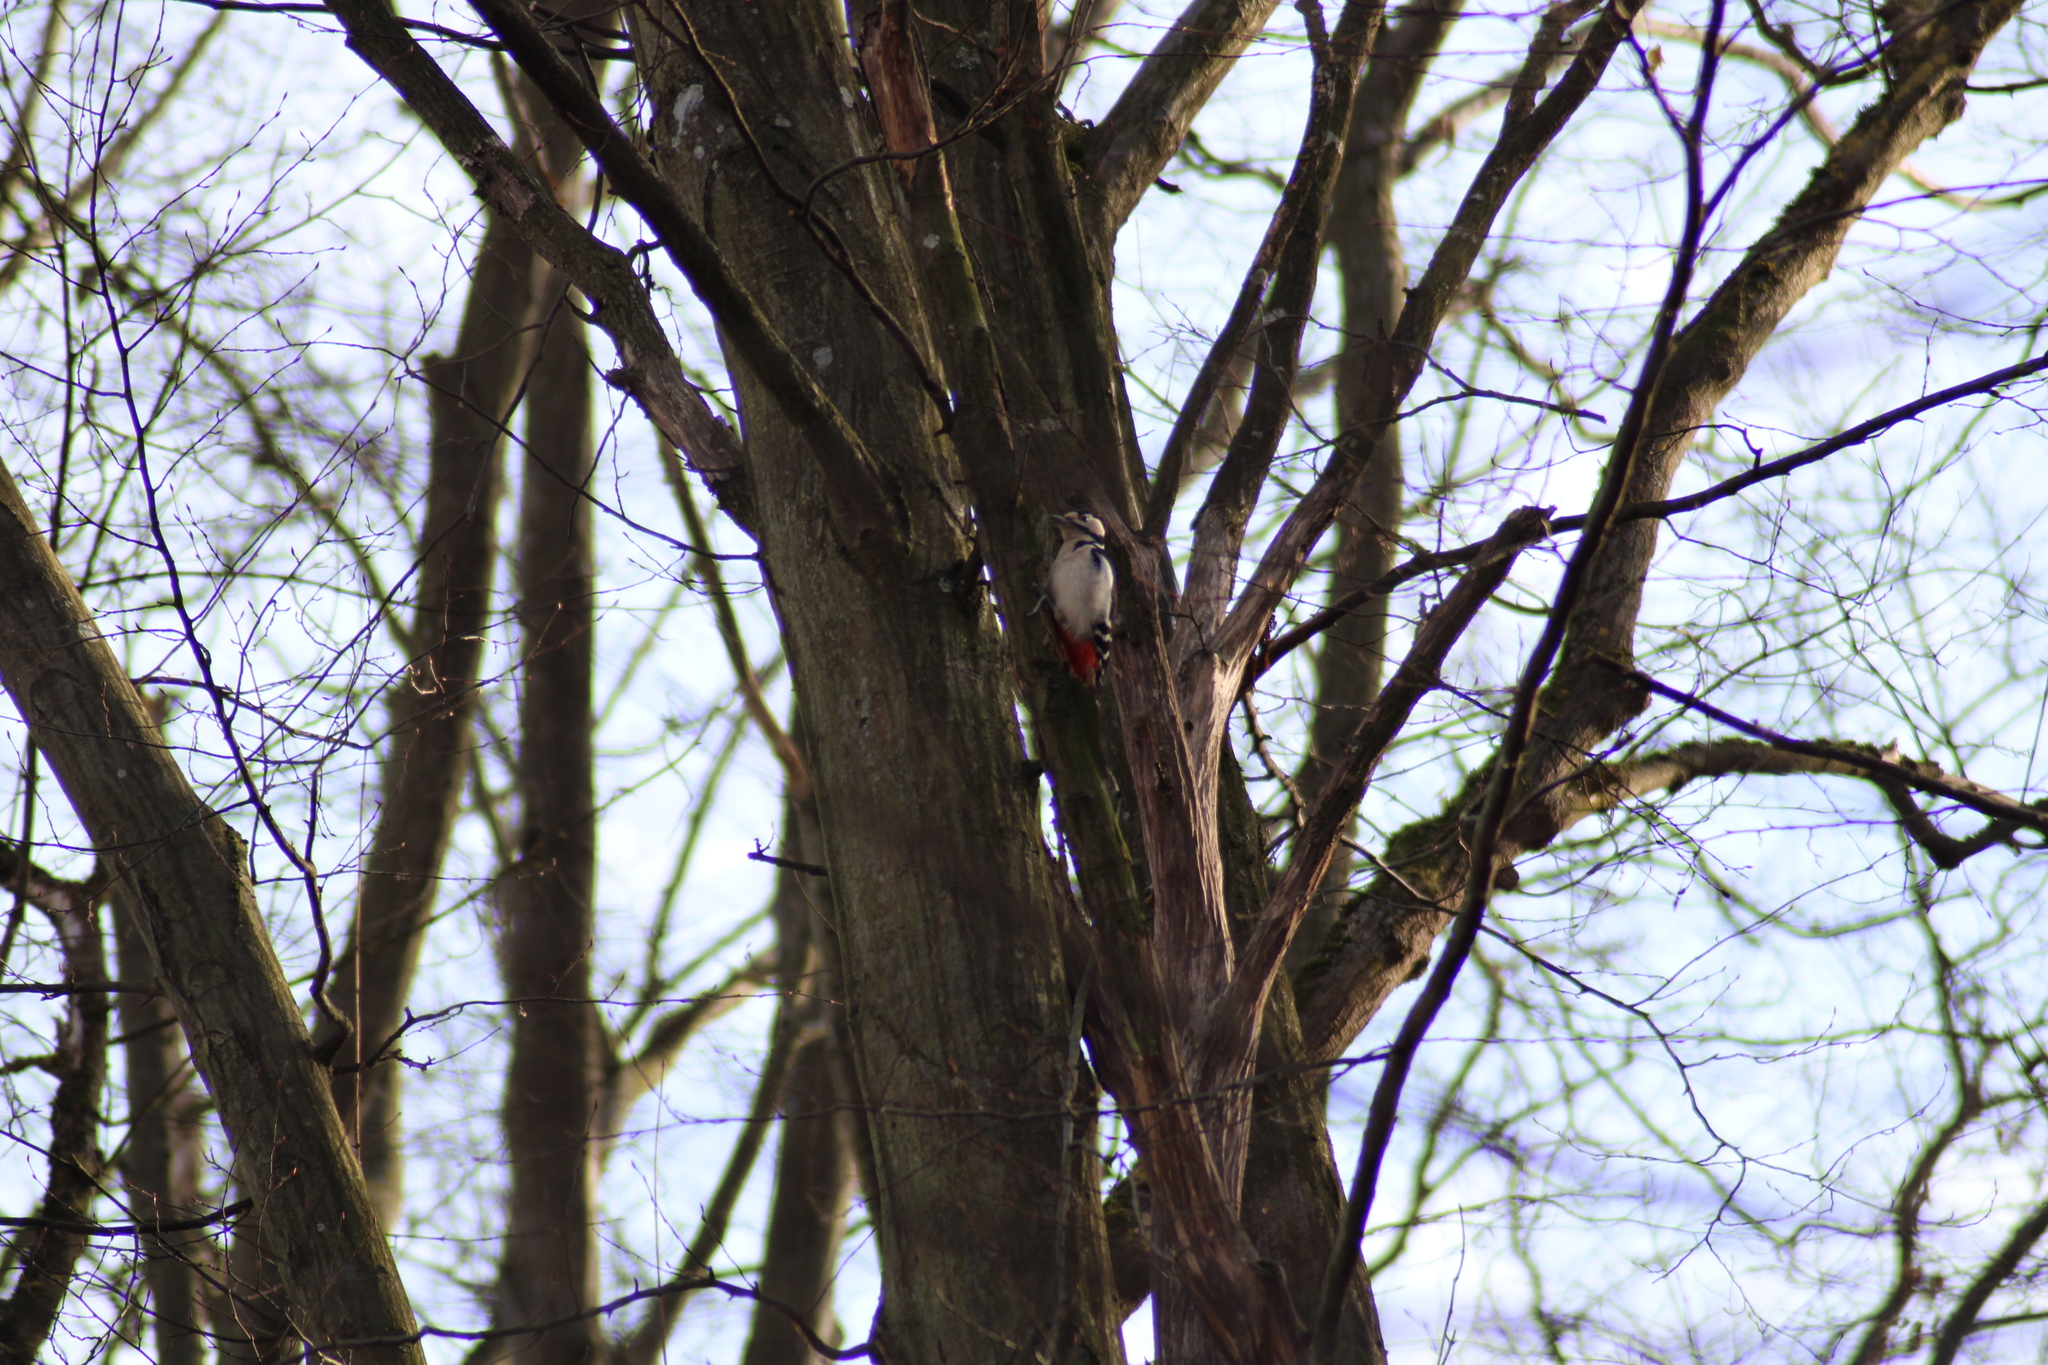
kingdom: Animalia
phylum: Chordata
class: Aves
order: Piciformes
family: Picidae
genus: Dendrocopos
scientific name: Dendrocopos major
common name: Great spotted woodpecker
